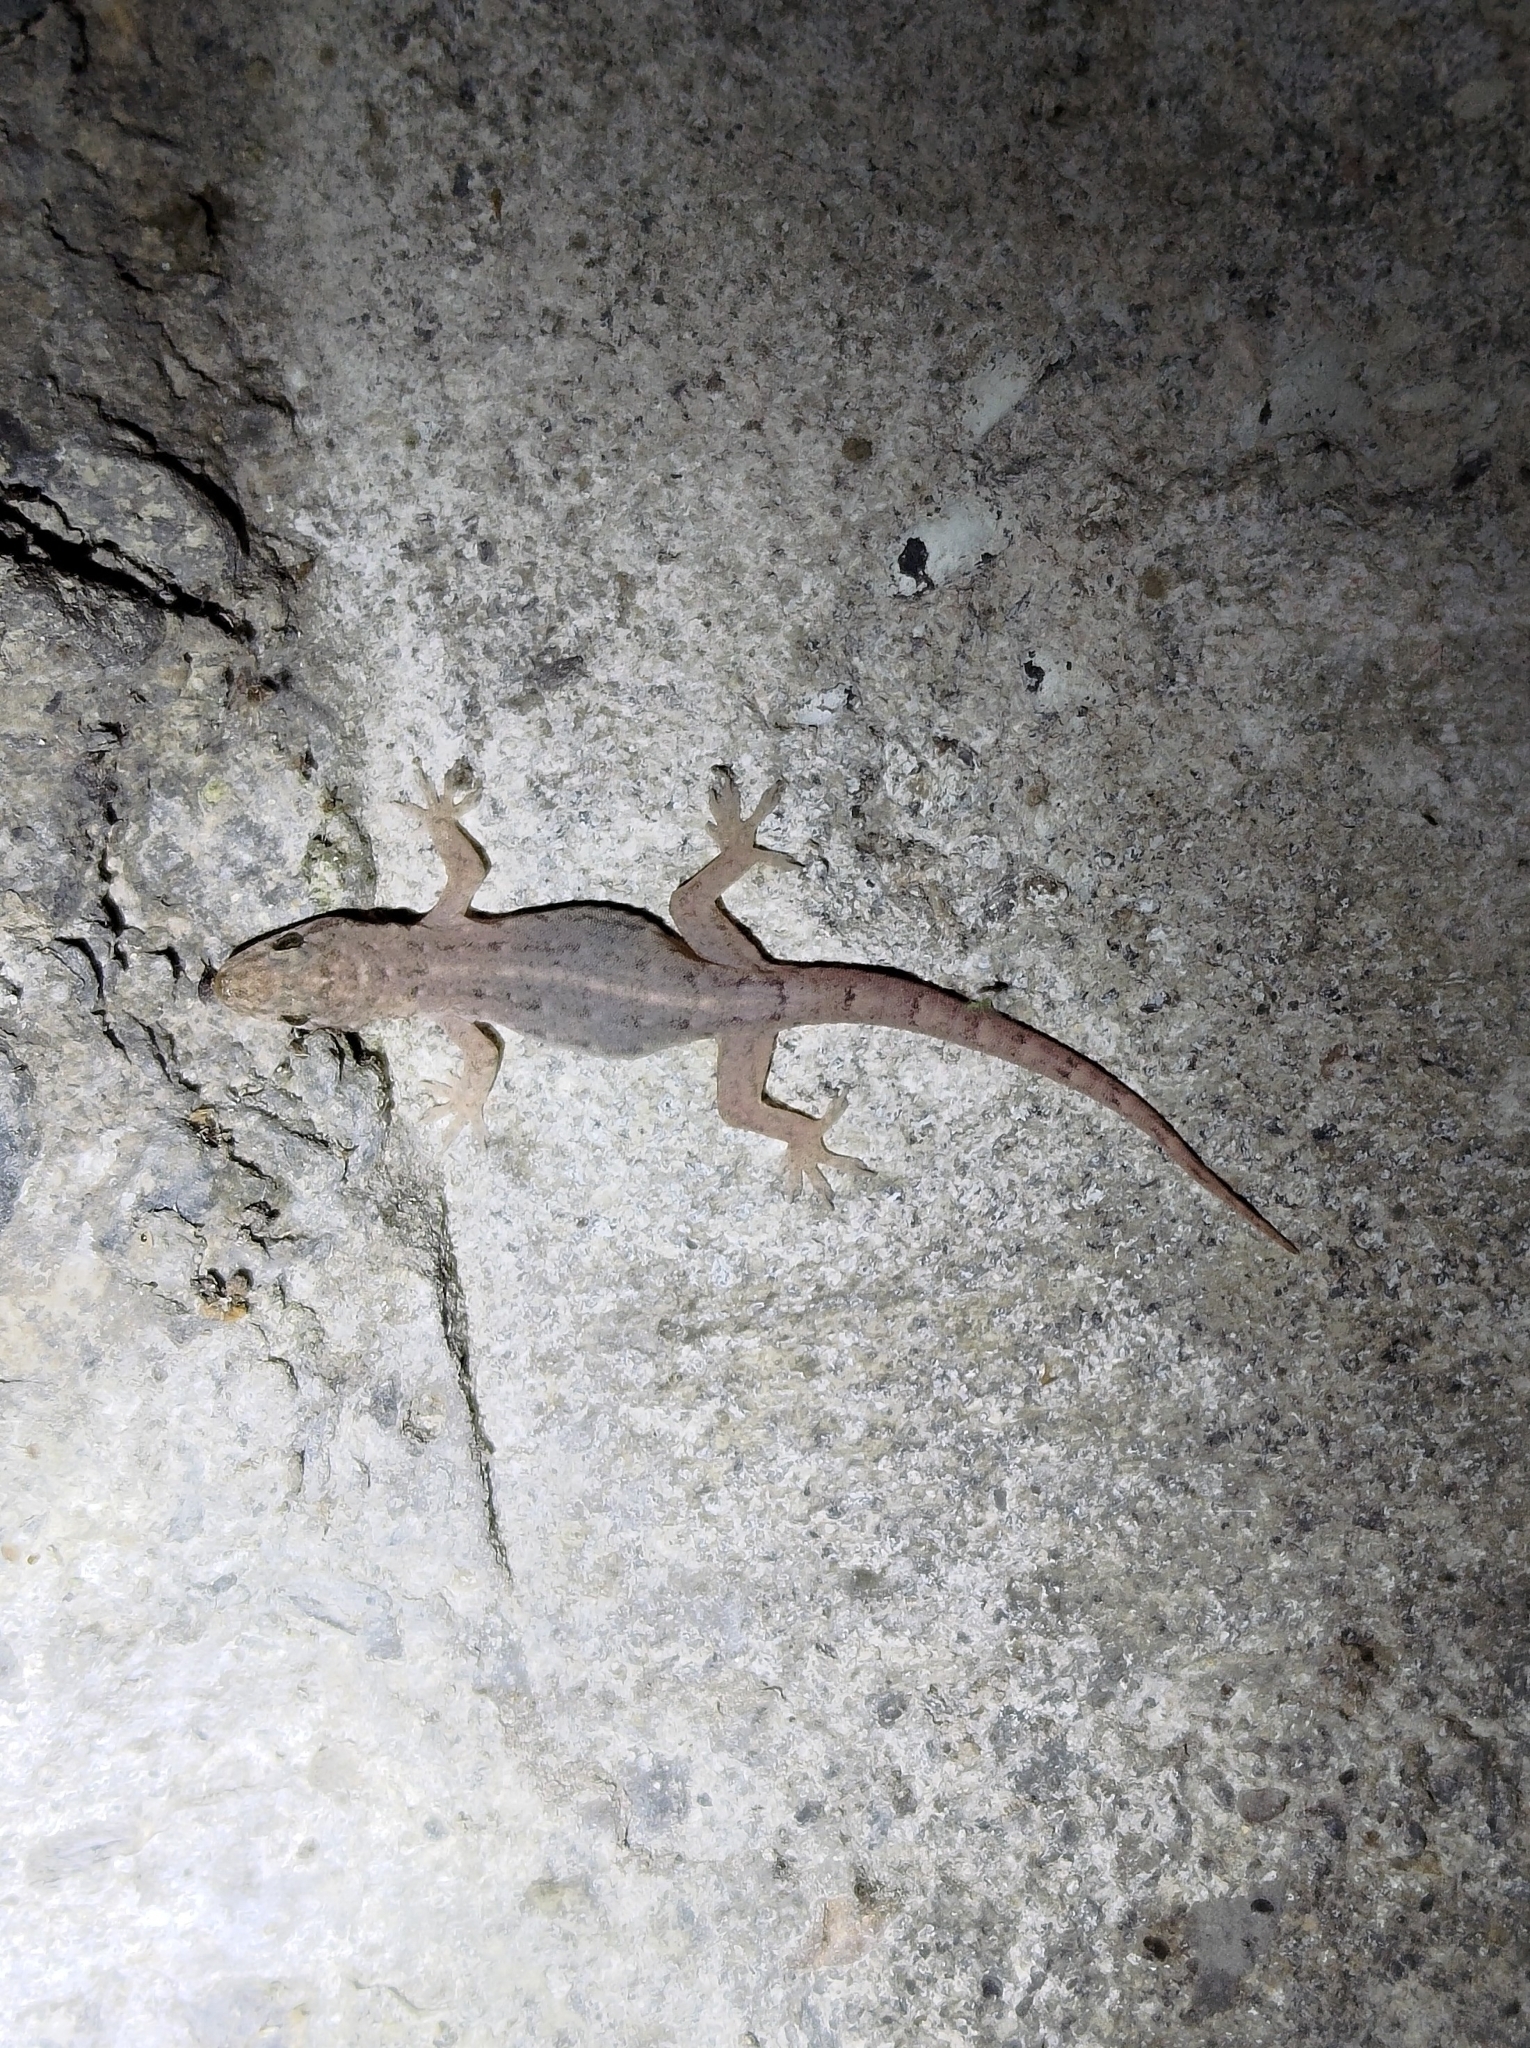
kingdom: Animalia
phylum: Chordata
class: Squamata
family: Gekkonidae
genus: Hemidactylus
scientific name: Hemidactylus bowringii
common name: Oriental leaf-toed gecko
